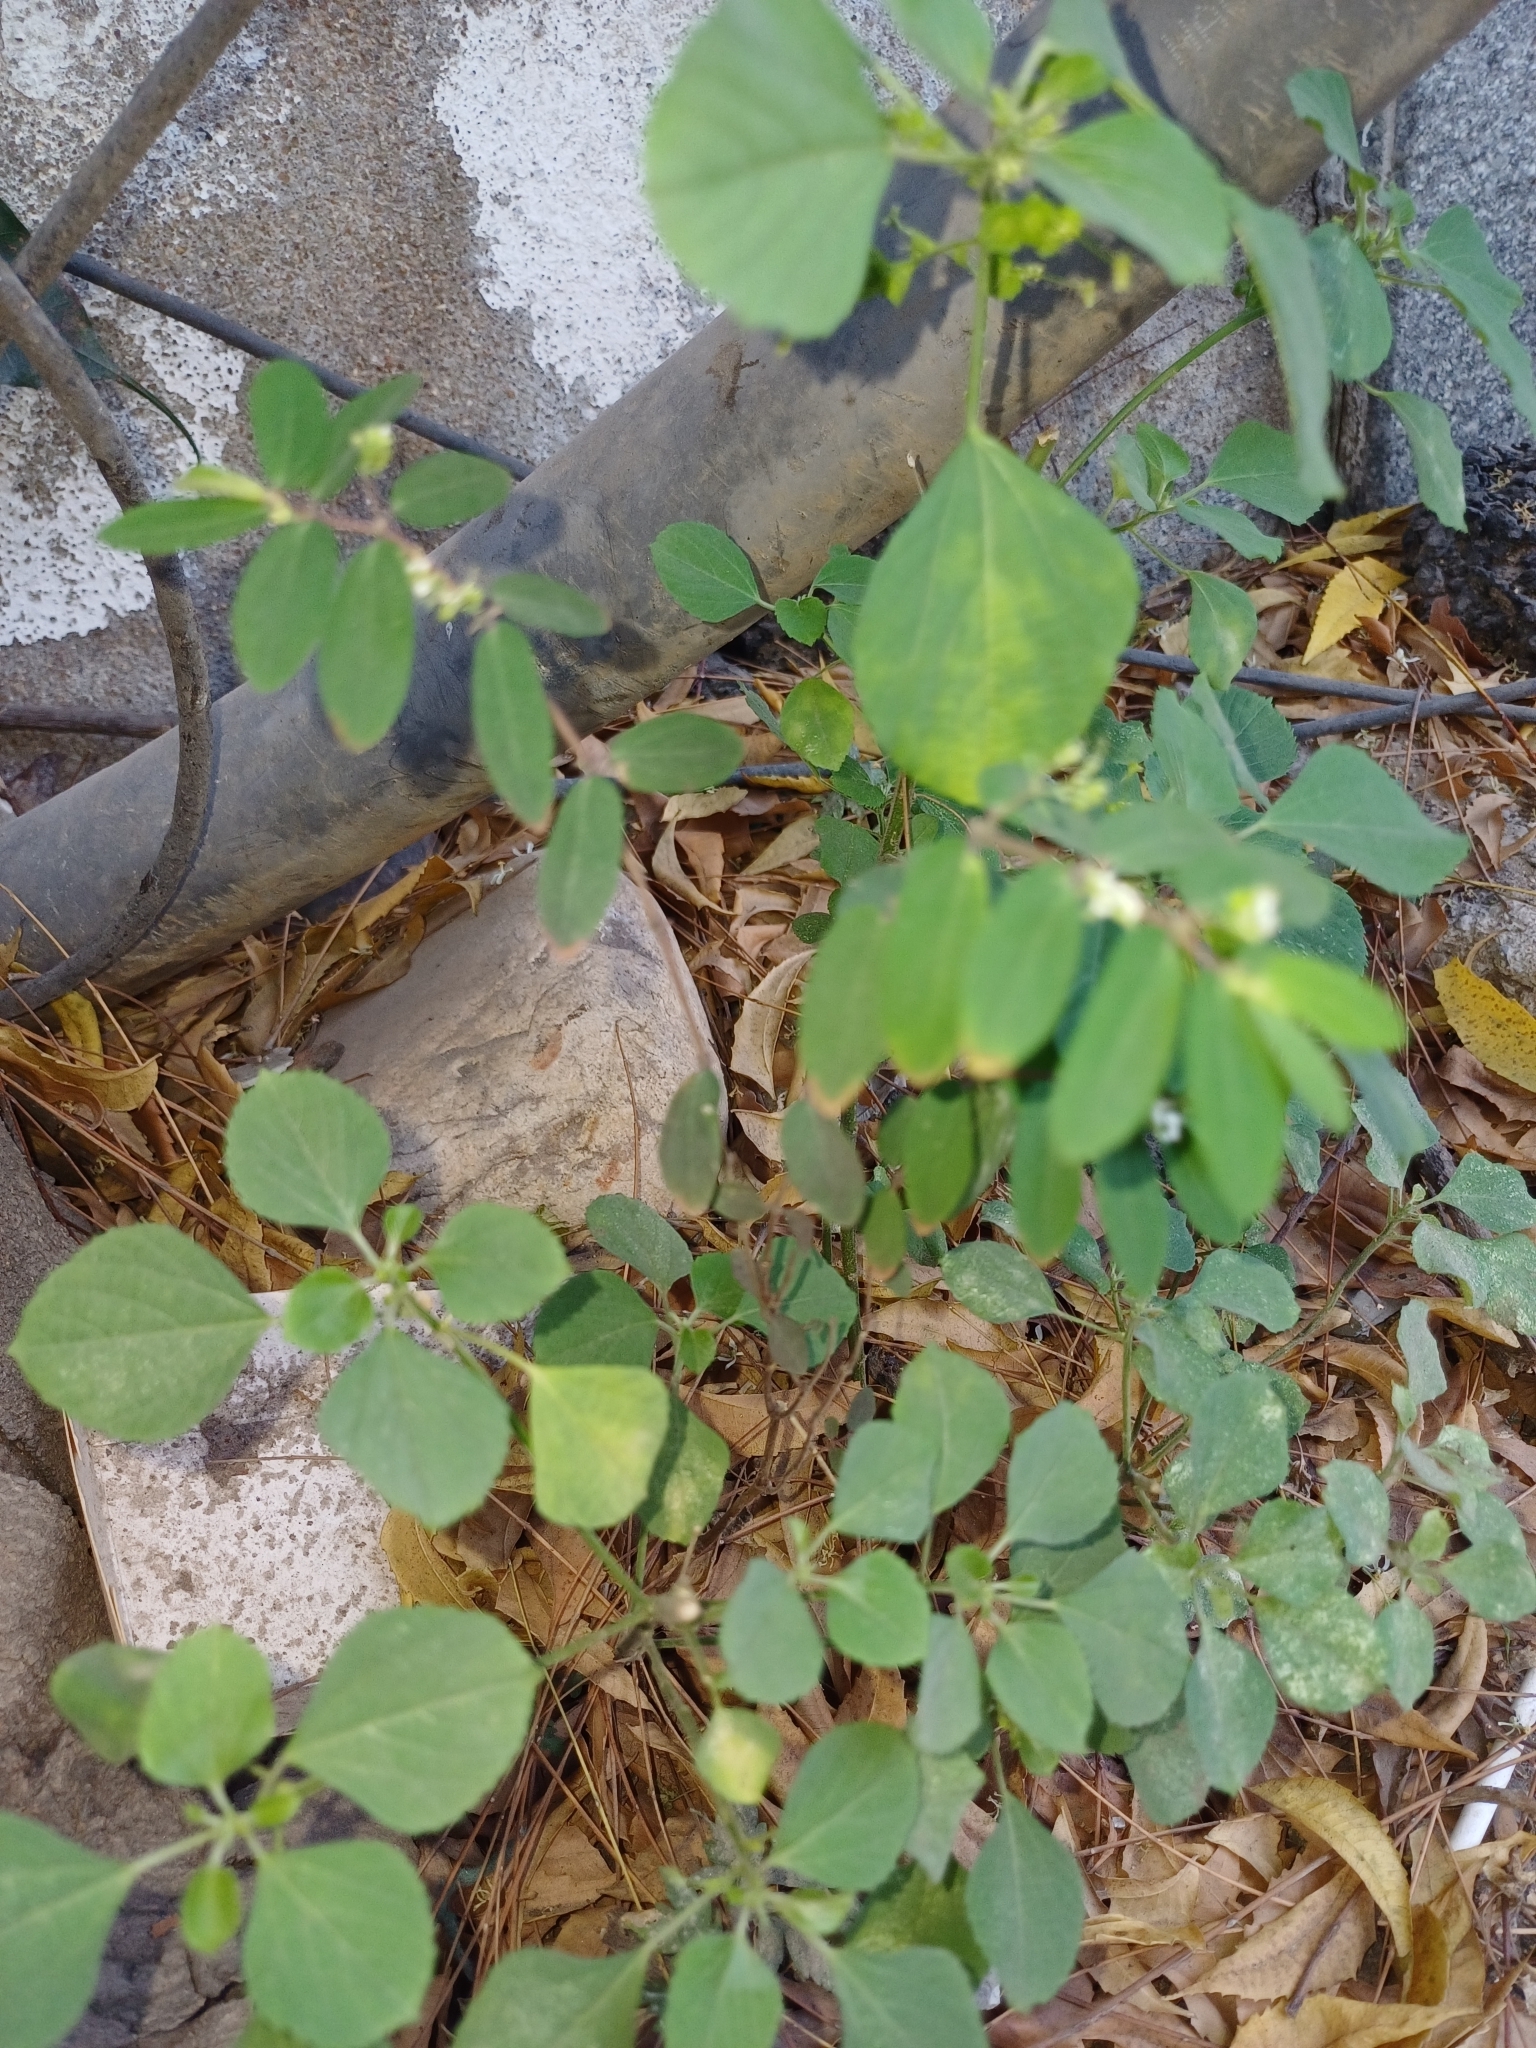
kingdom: Plantae
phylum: Tracheophyta
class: Magnoliopsida
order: Malpighiales
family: Euphorbiaceae
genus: Euphorbia
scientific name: Euphorbia hypericifolia
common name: Graceful sandmat
